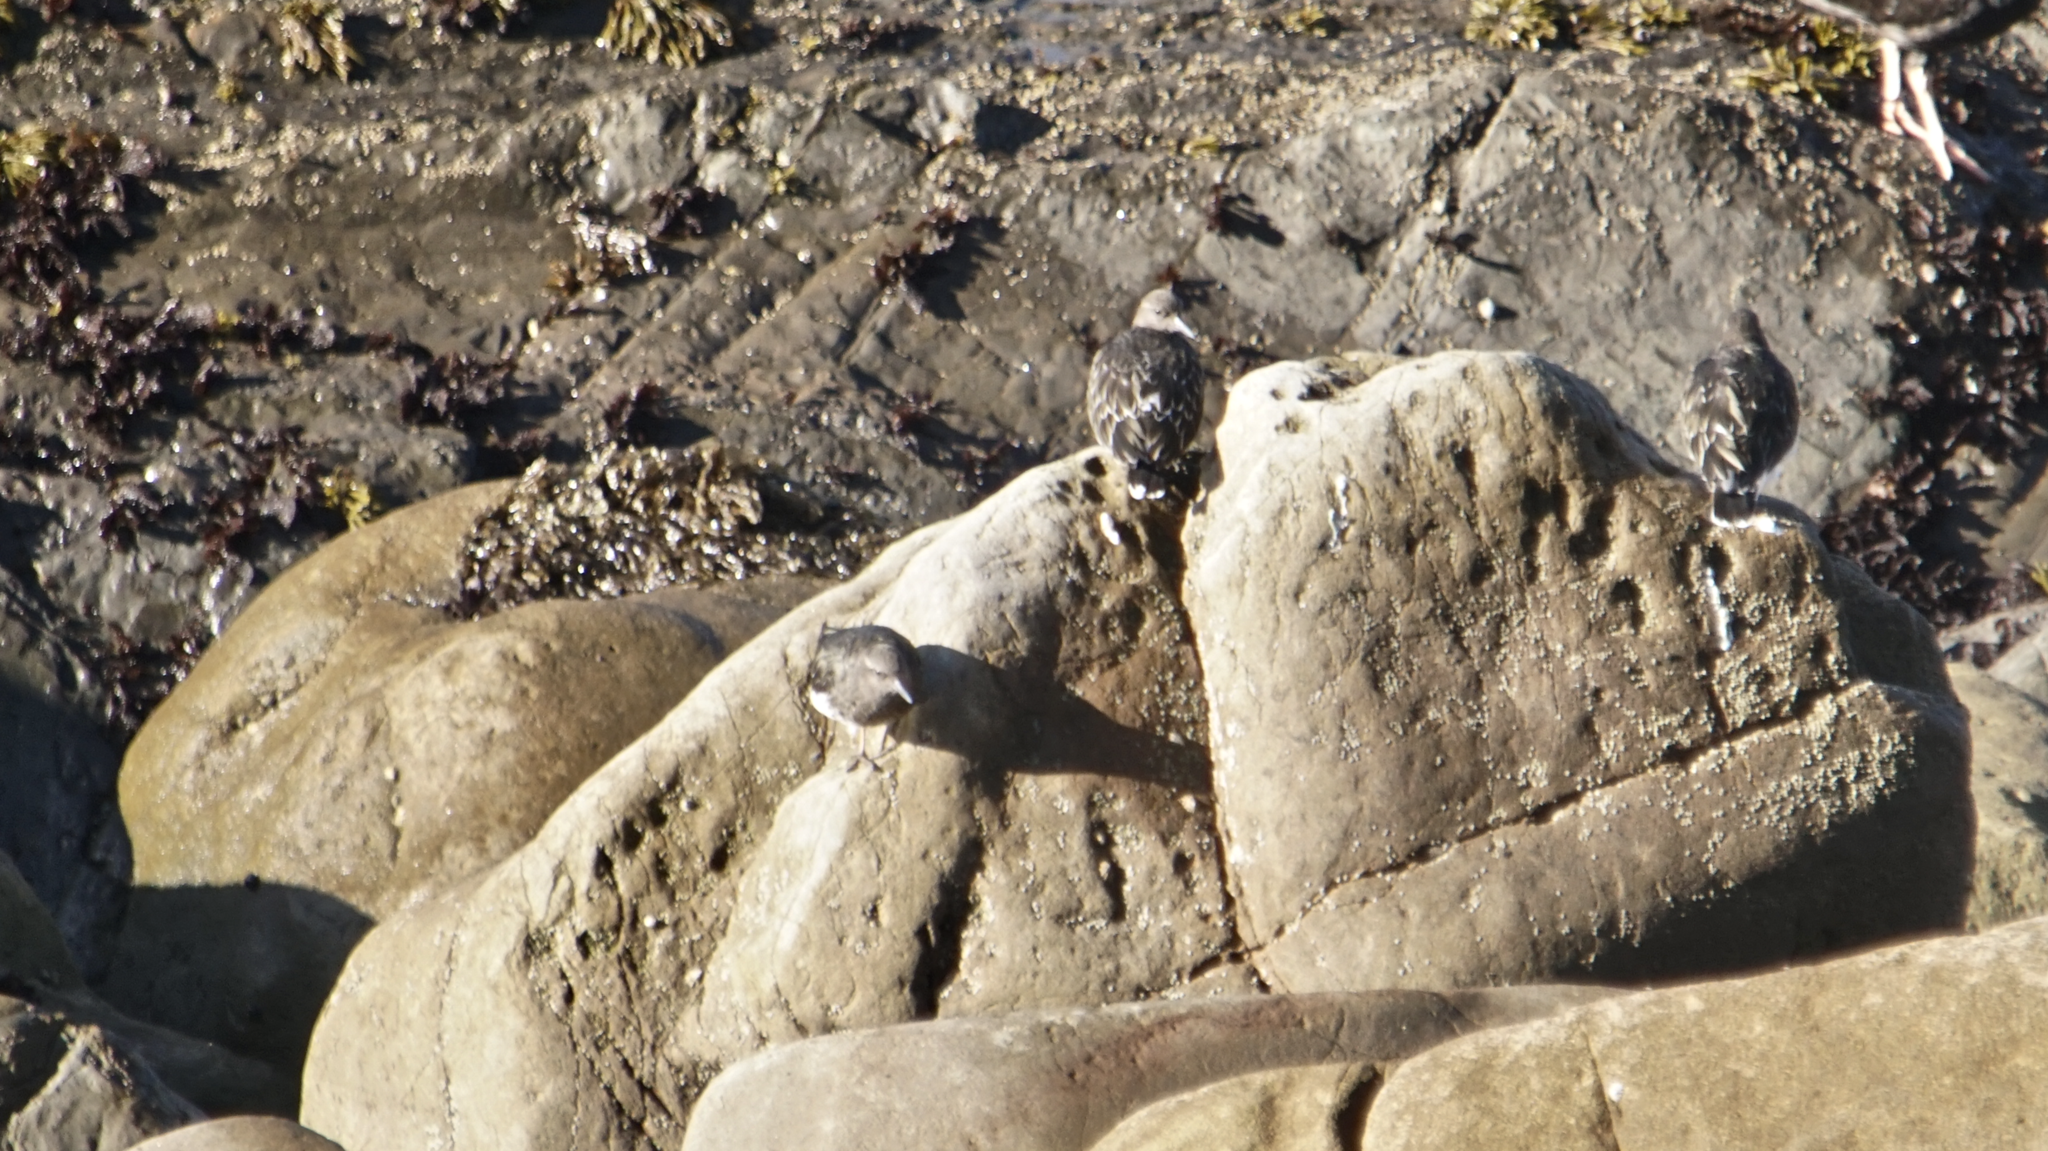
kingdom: Animalia
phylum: Chordata
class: Aves
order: Charadriiformes
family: Scolopacidae
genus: Arenaria
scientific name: Arenaria melanocephala
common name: Black turnstone
